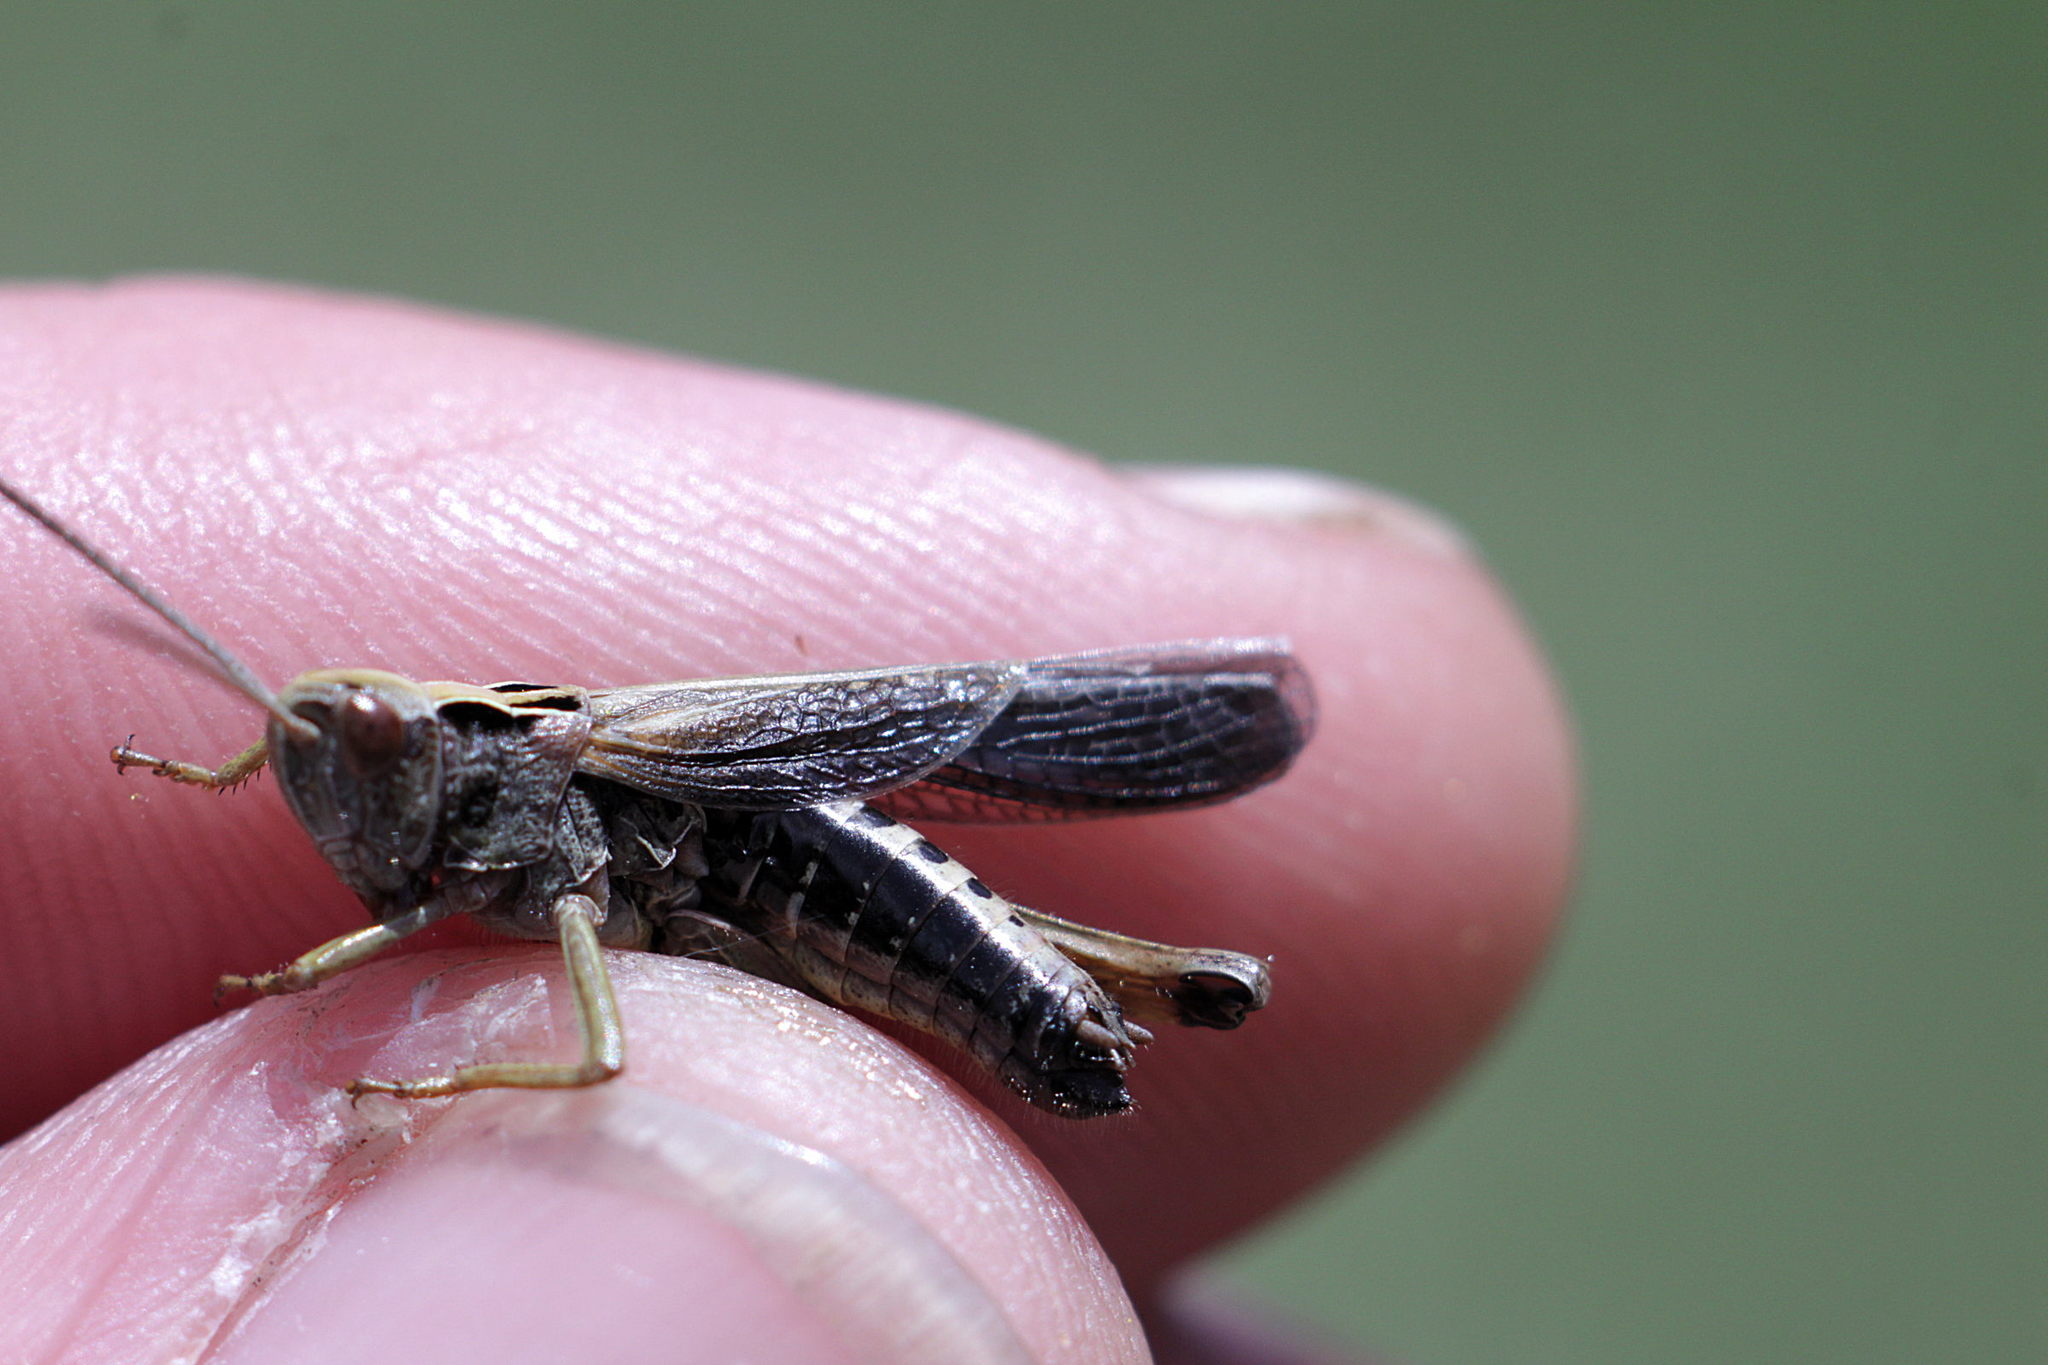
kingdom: Animalia
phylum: Arthropoda
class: Insecta
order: Orthoptera
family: Acrididae
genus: Omocestus
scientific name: Omocestus viridulus
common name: Common green grasshopper
